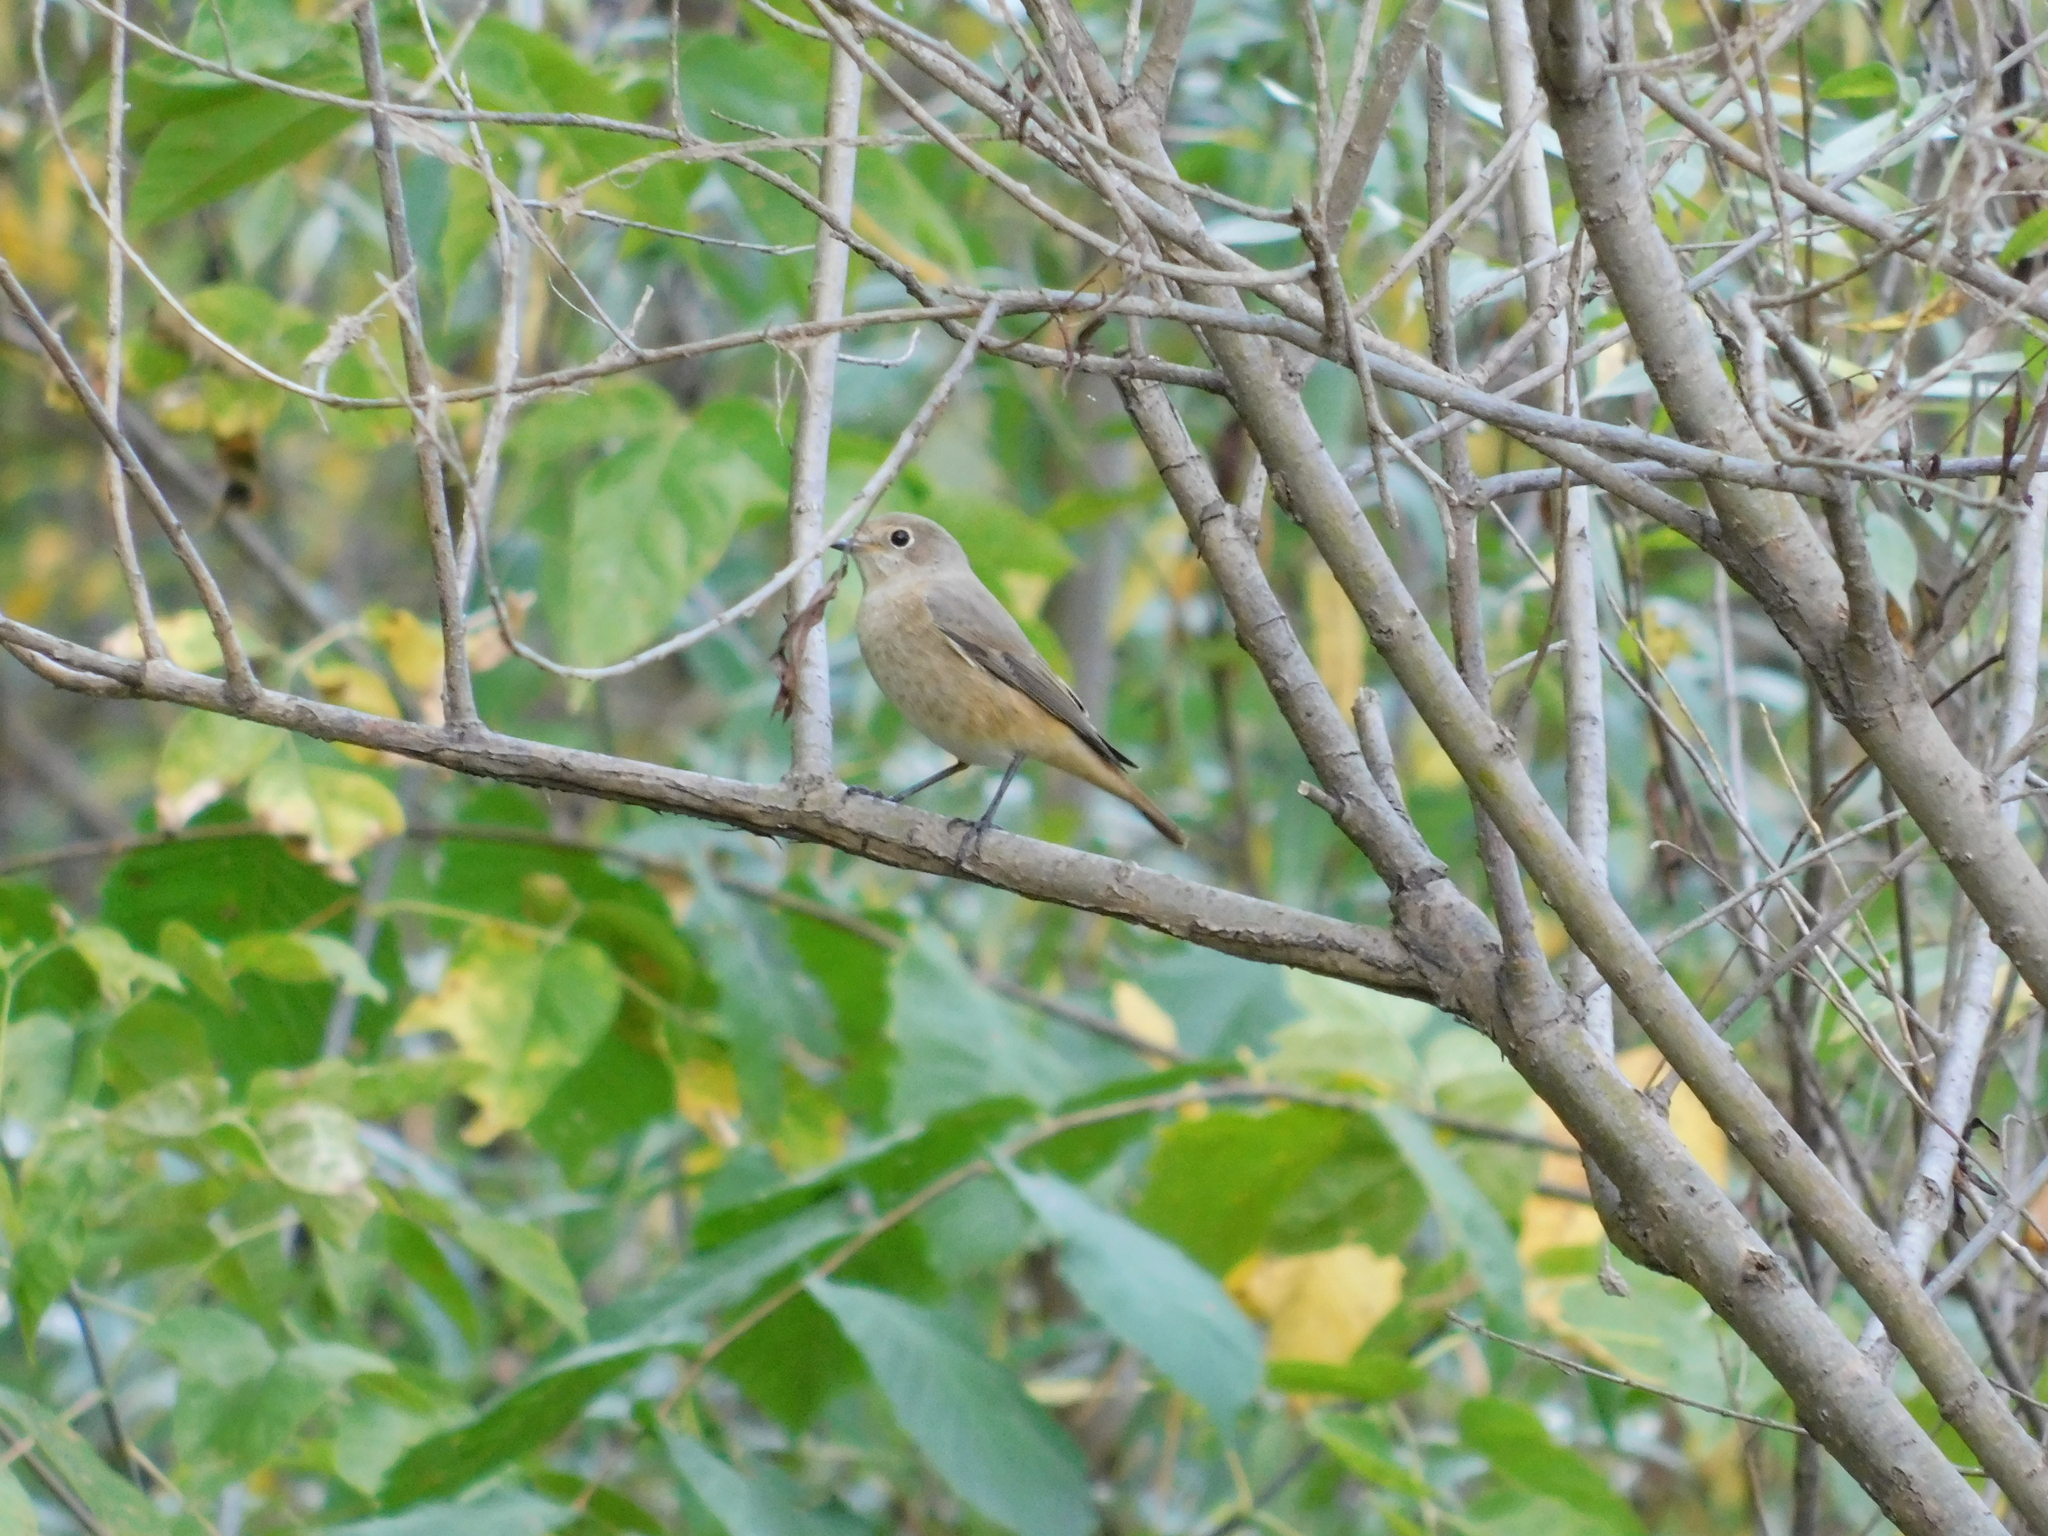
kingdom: Animalia
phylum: Chordata
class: Aves
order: Passeriformes
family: Muscicapidae
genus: Phoenicurus
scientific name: Phoenicurus phoenicurus
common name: Common redstart
